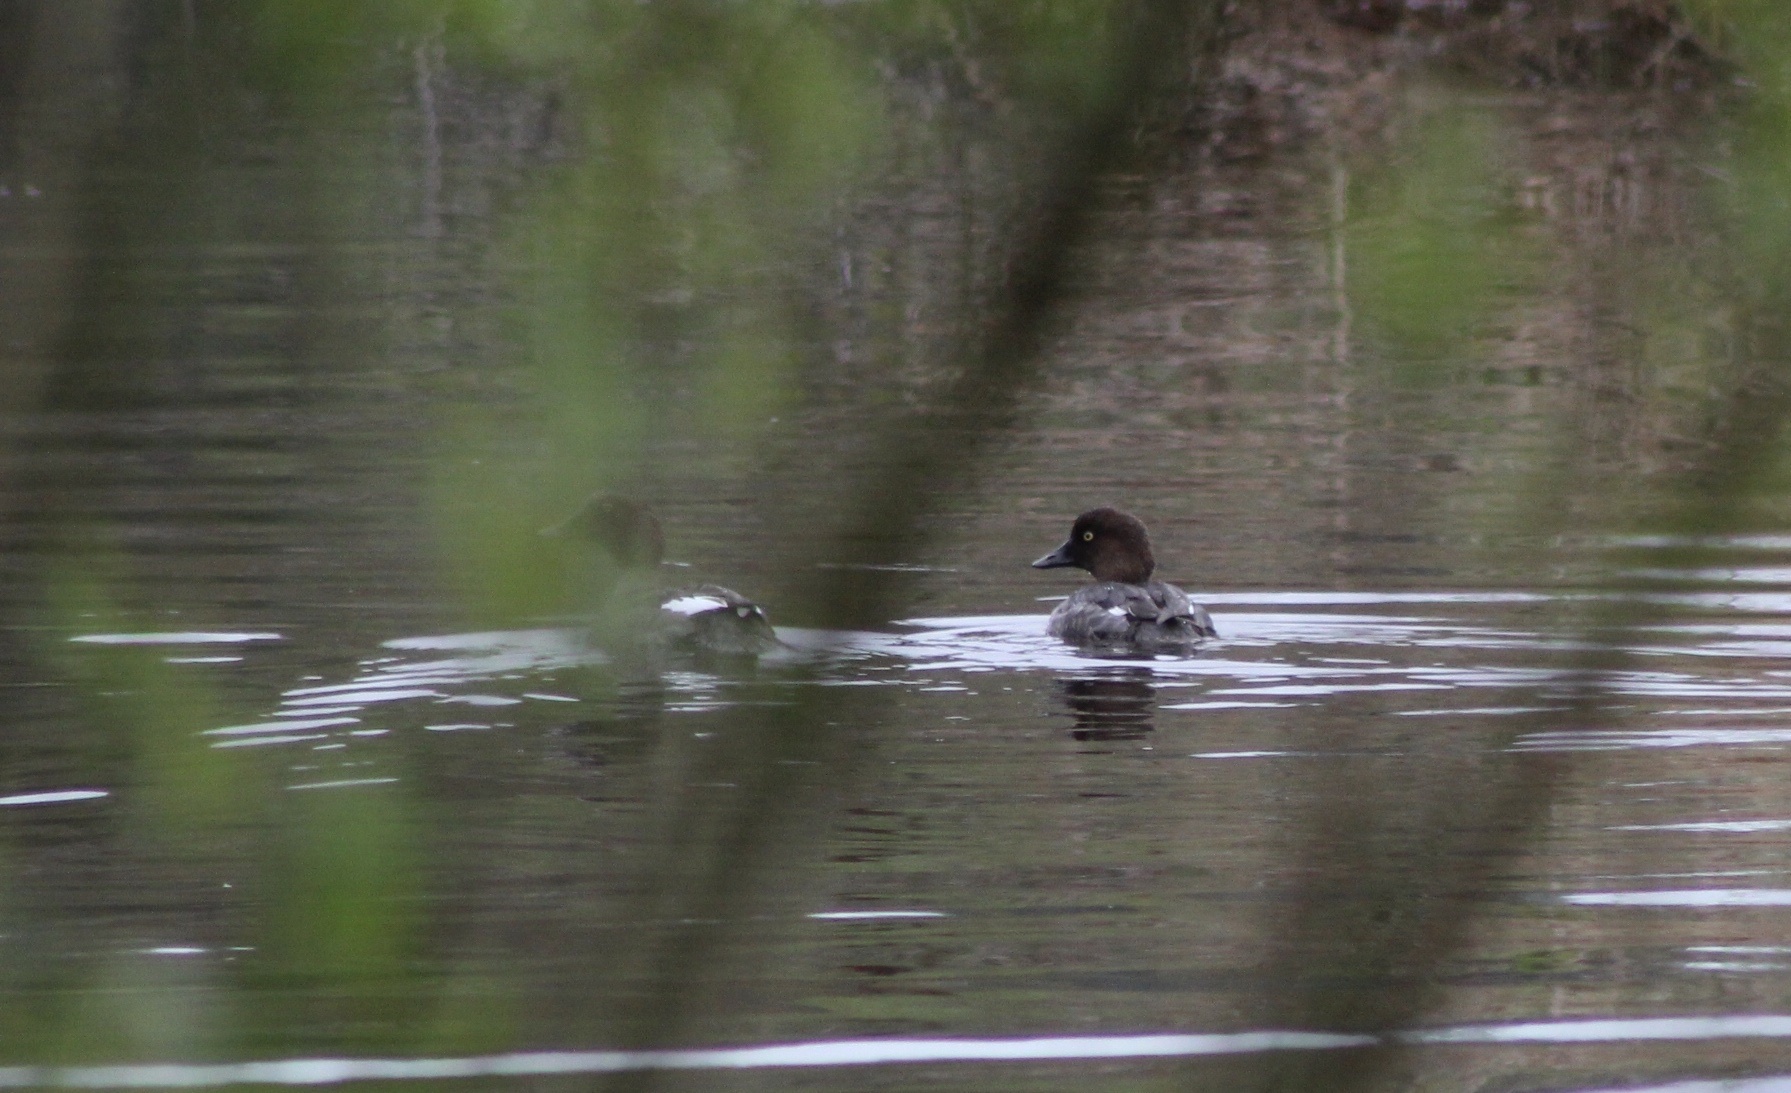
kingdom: Animalia
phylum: Chordata
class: Aves
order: Anseriformes
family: Anatidae
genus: Bucephala
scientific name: Bucephala clangula
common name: Common goldeneye
